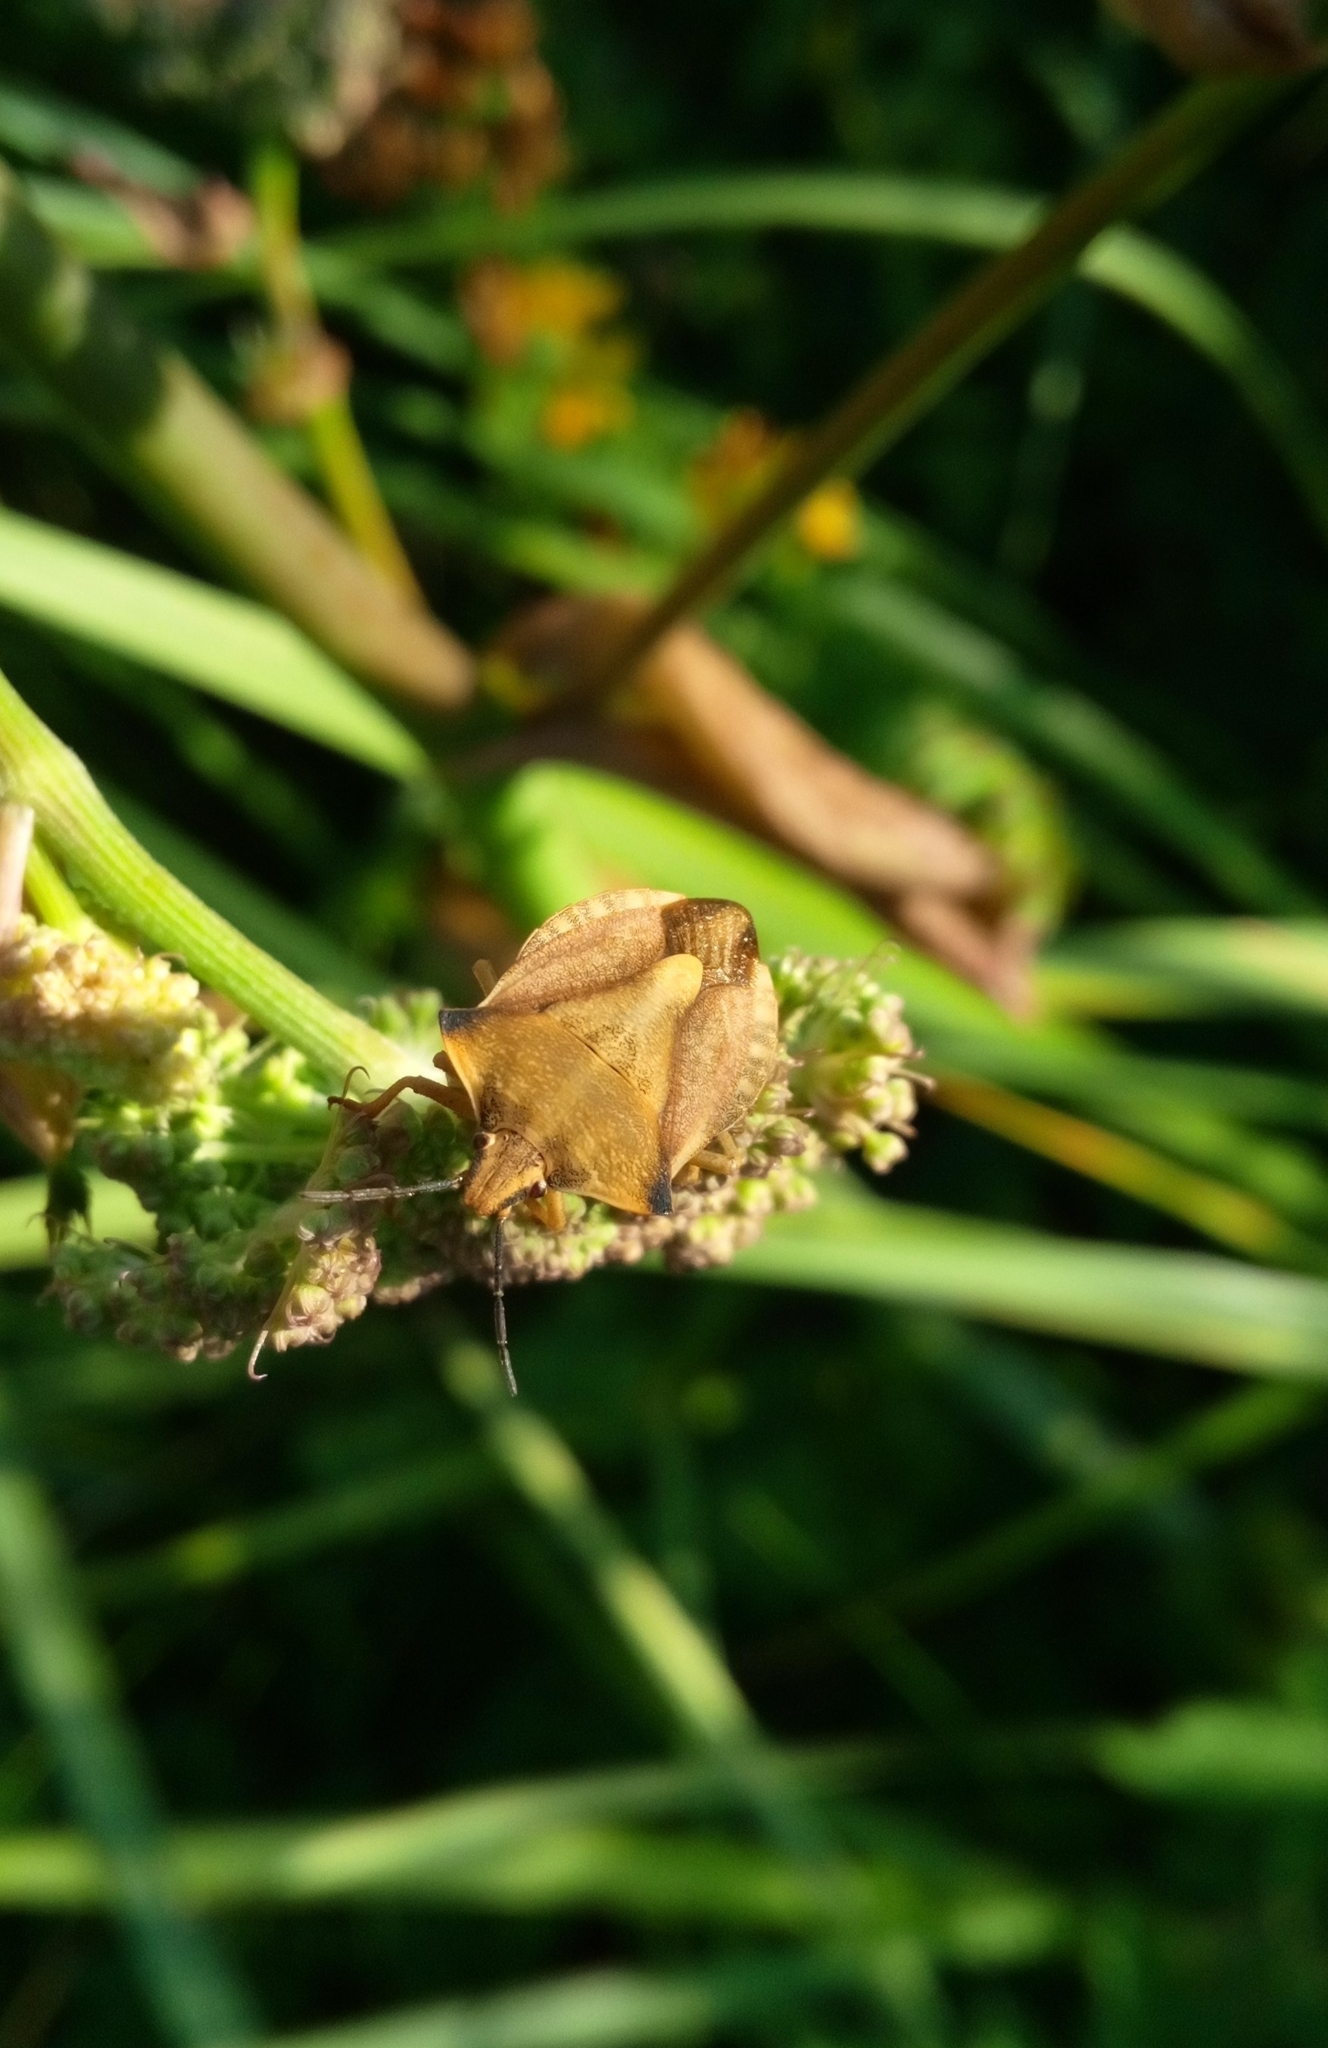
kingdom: Animalia
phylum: Arthropoda
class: Insecta
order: Hemiptera
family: Pentatomidae
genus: Carpocoris
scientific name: Carpocoris fuscispinus
